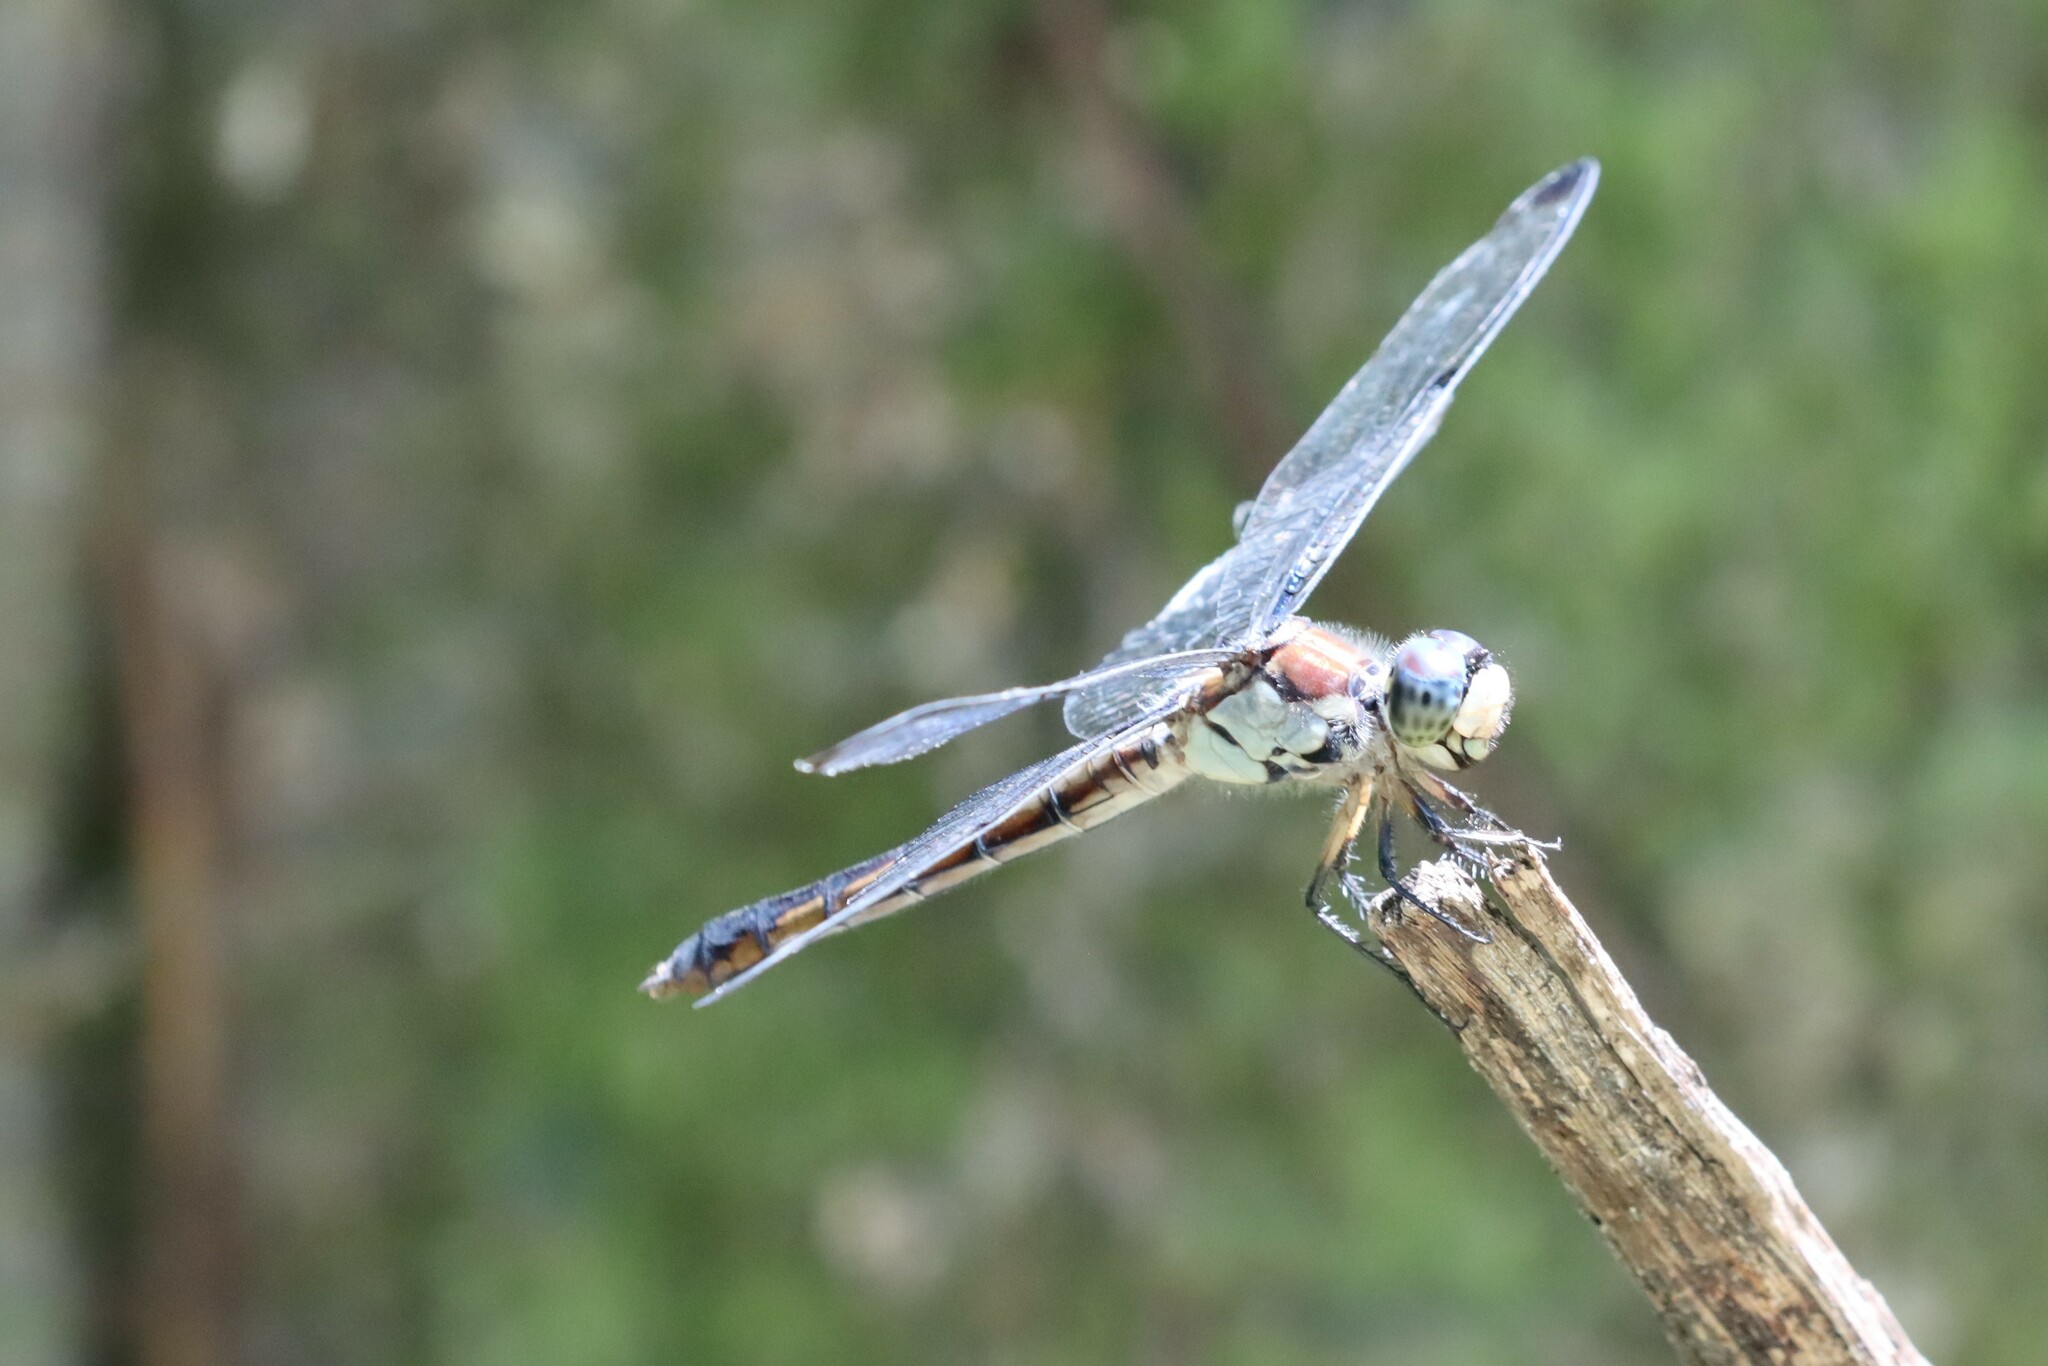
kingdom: Animalia
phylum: Arthropoda
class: Insecta
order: Odonata
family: Libellulidae
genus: Libellula
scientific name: Libellula vibrans
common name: Great blue skimmer
